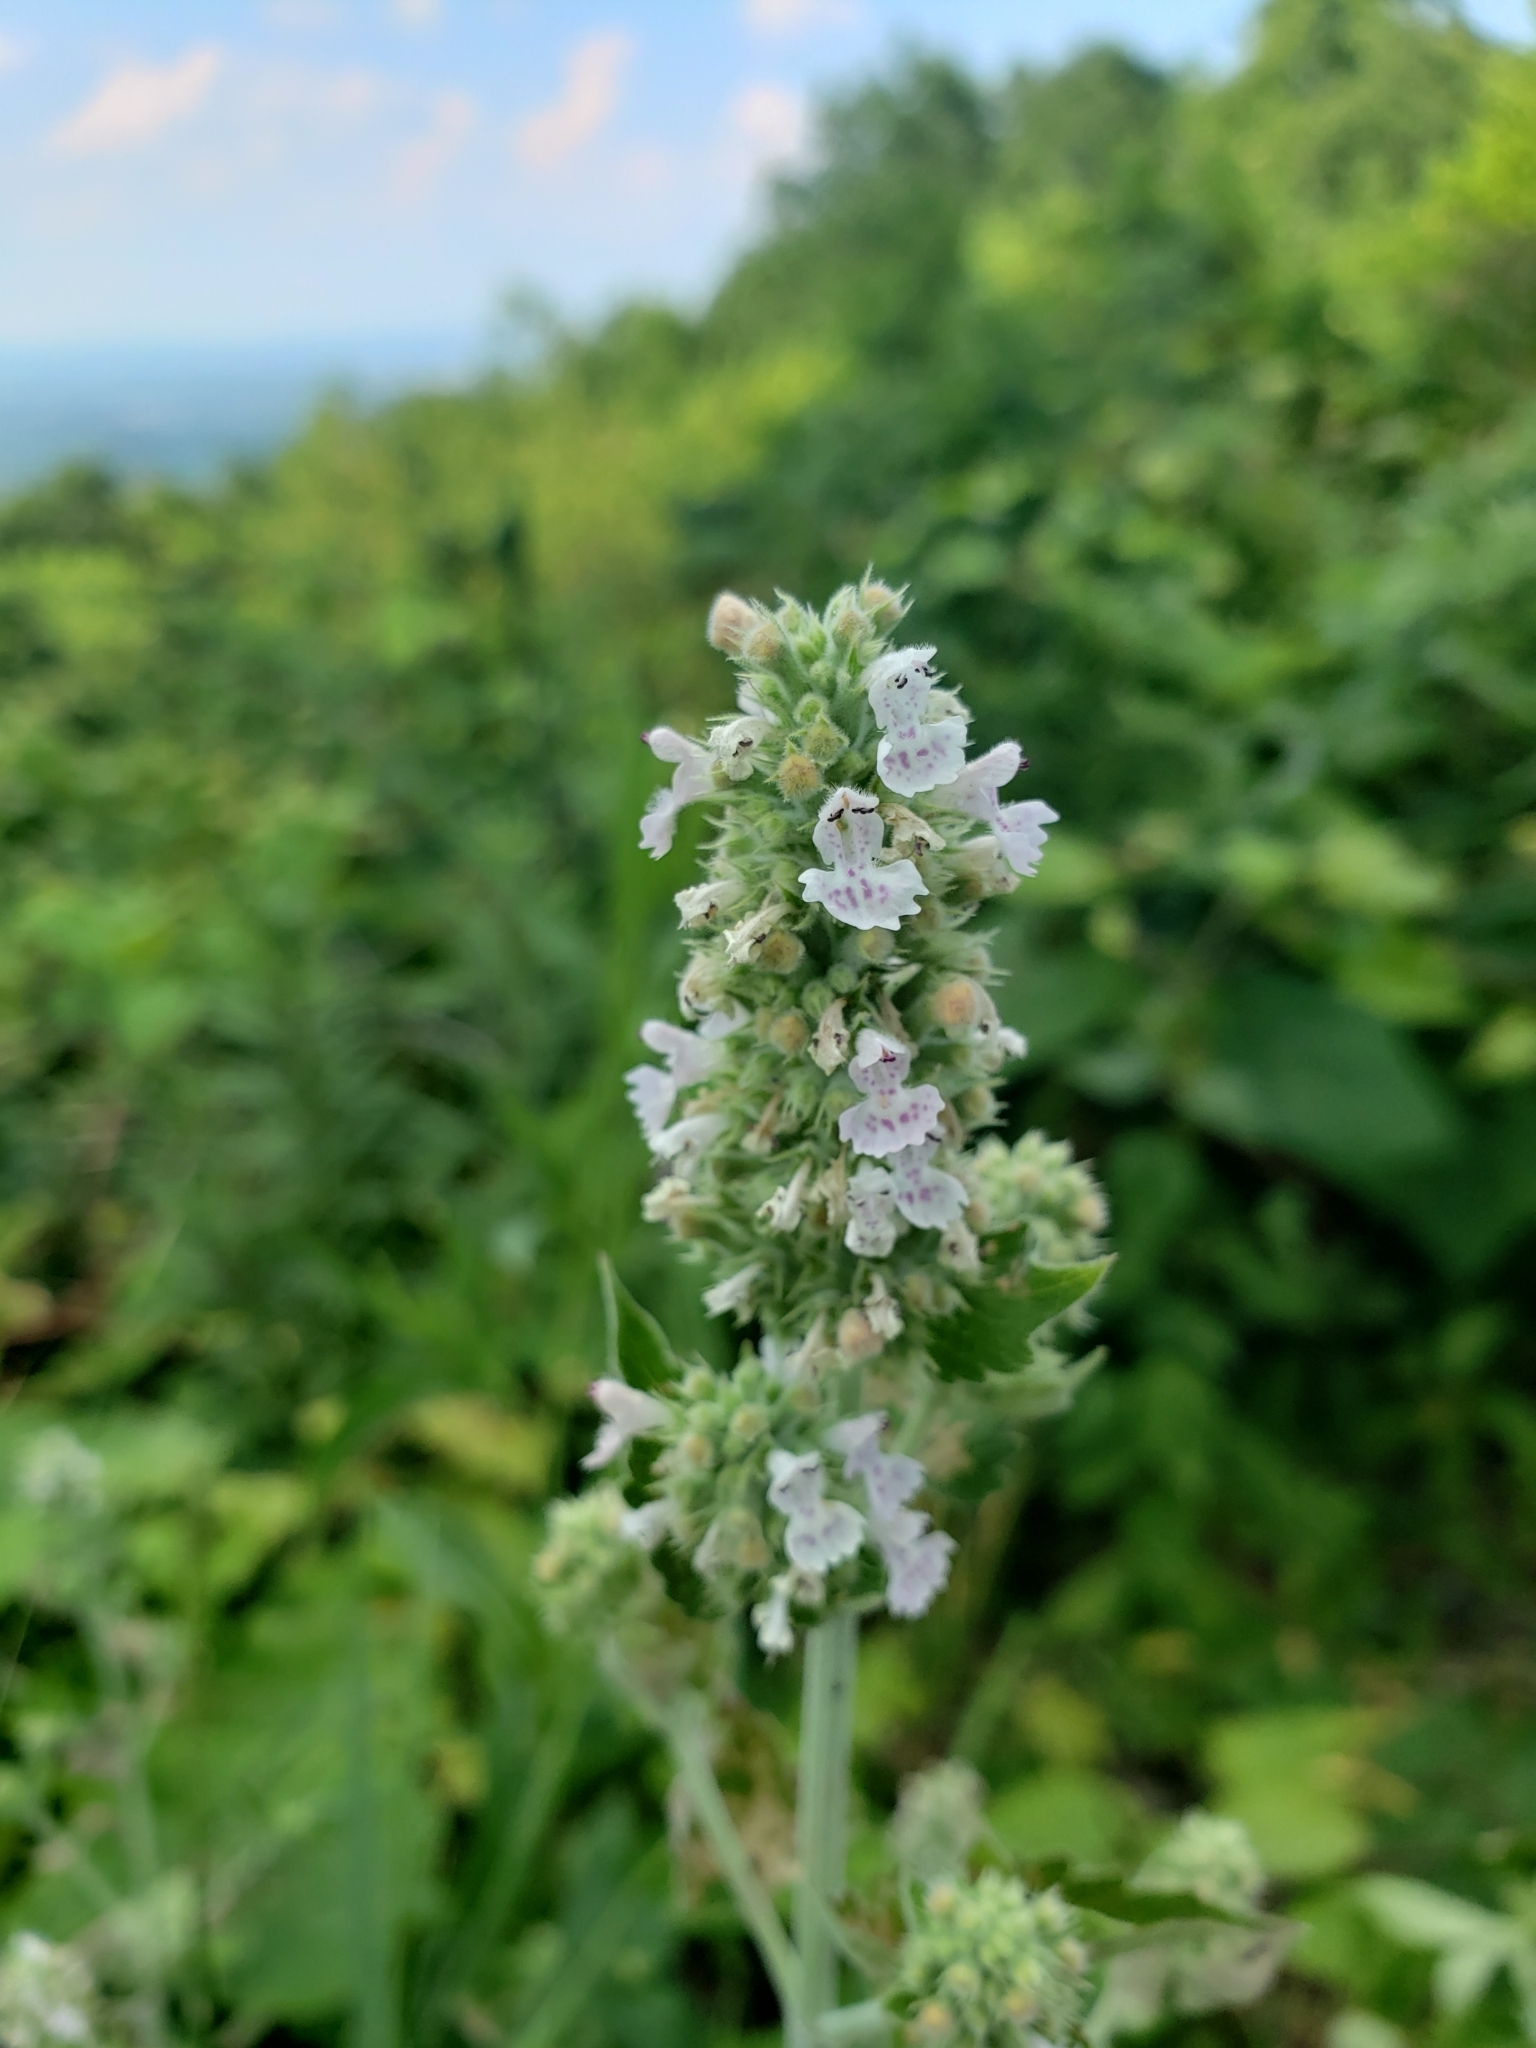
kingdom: Plantae
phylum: Tracheophyta
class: Magnoliopsida
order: Lamiales
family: Lamiaceae
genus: Nepeta
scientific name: Nepeta cataria
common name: Catnip
